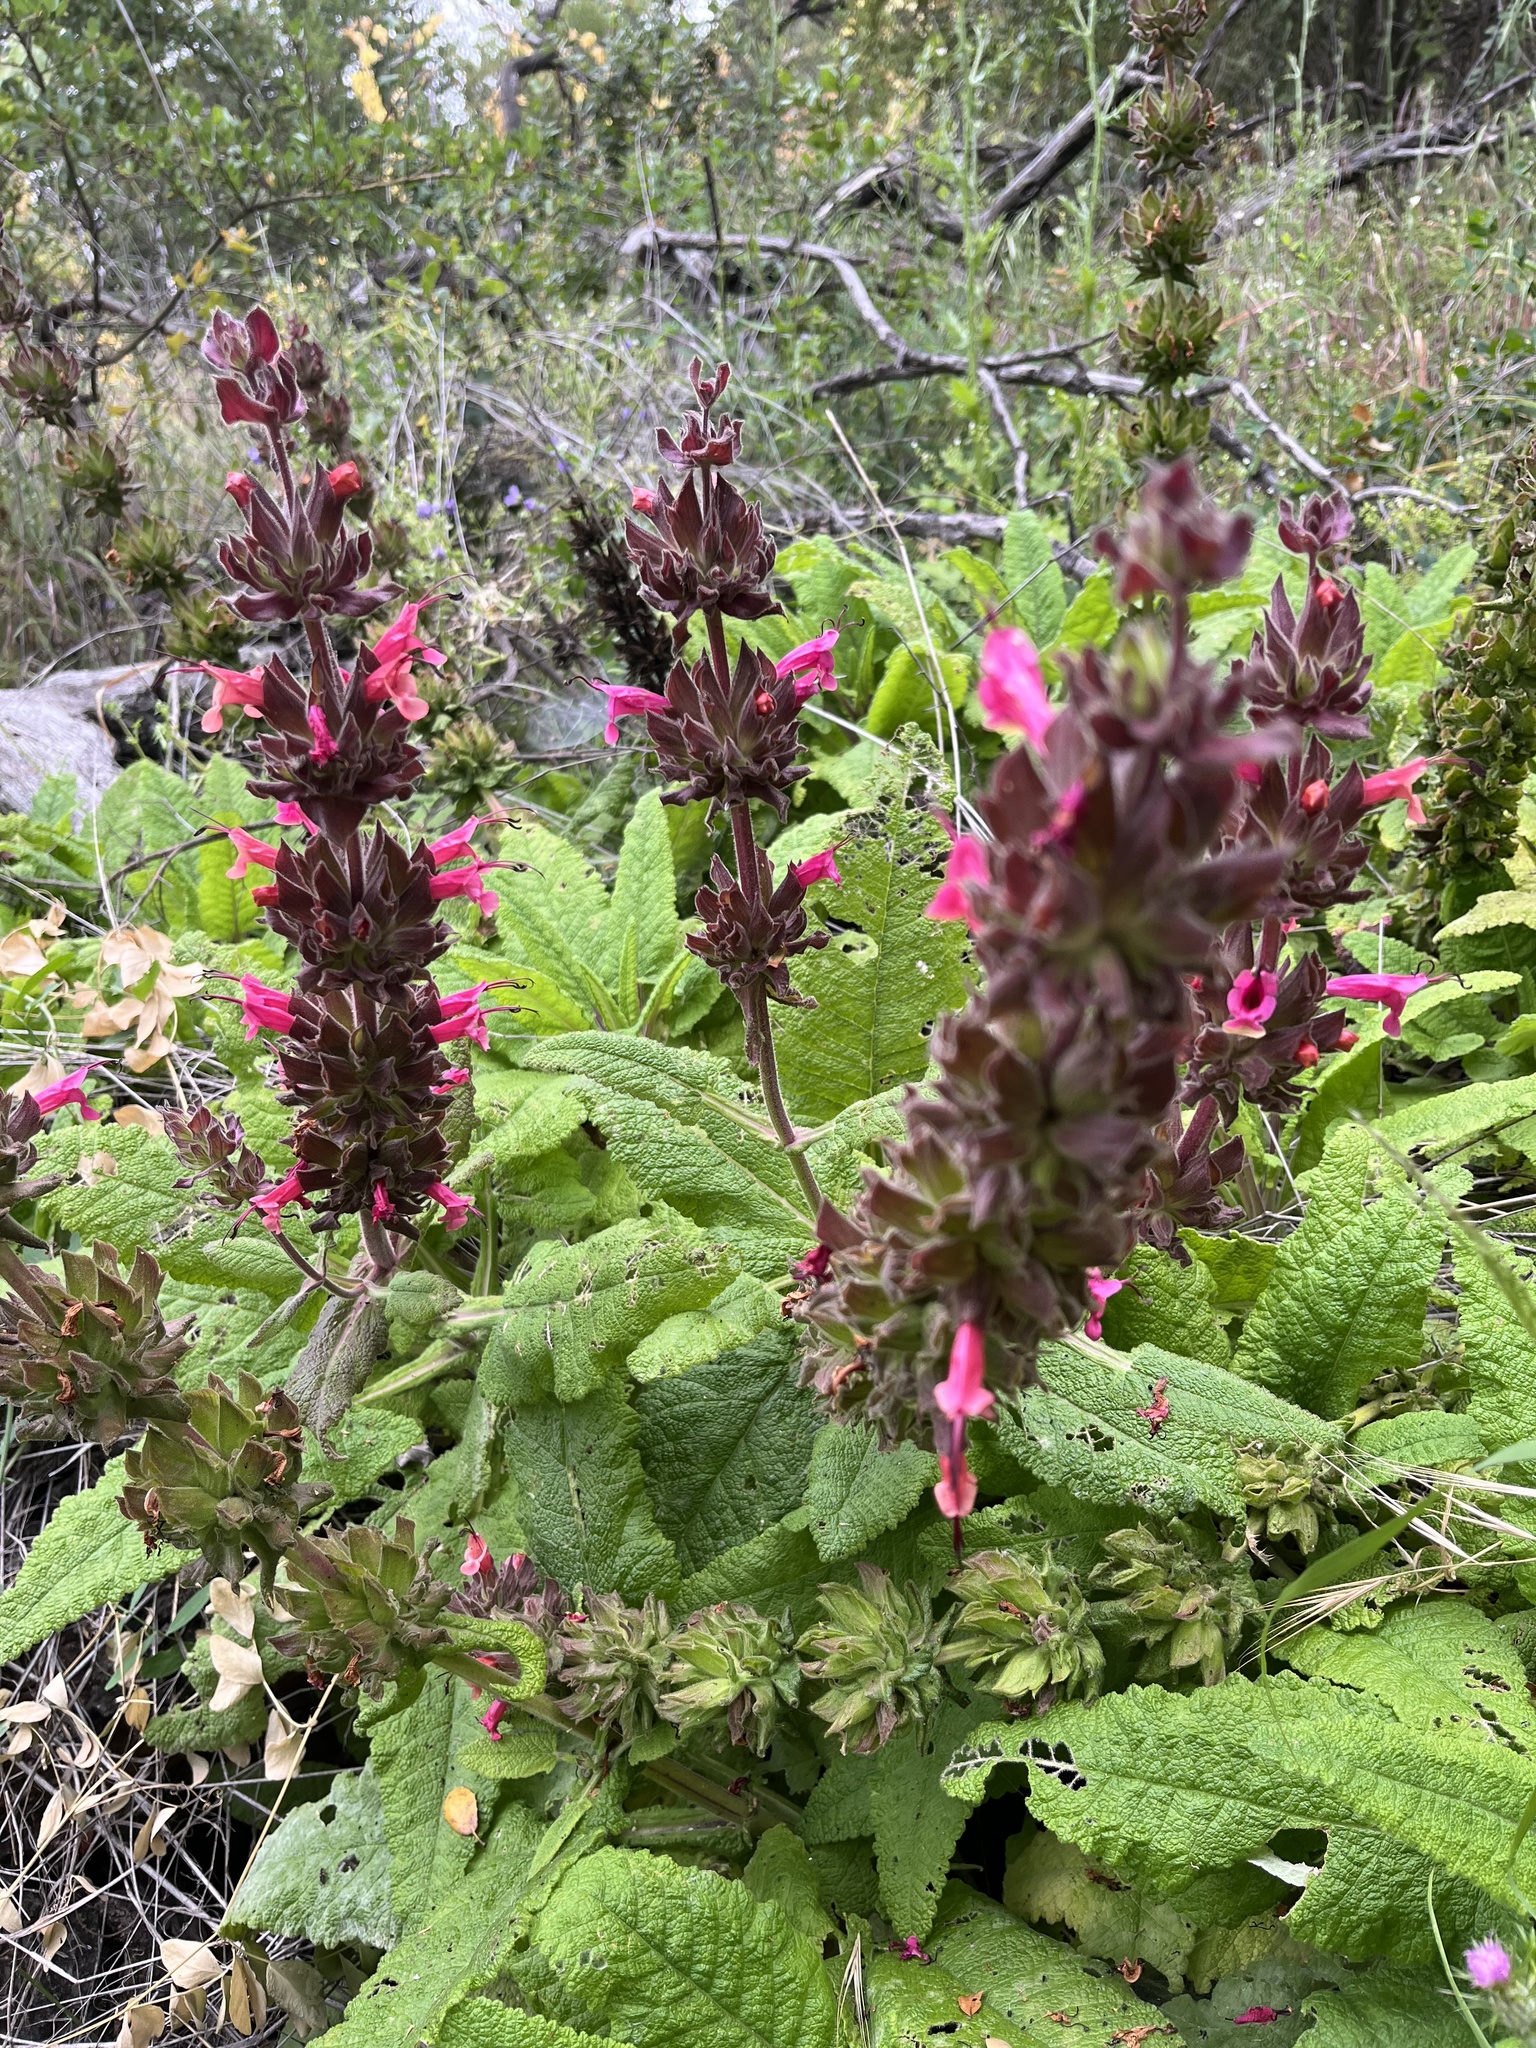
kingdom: Plantae
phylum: Tracheophyta
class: Magnoliopsida
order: Lamiales
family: Lamiaceae
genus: Salvia
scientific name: Salvia spathacea
